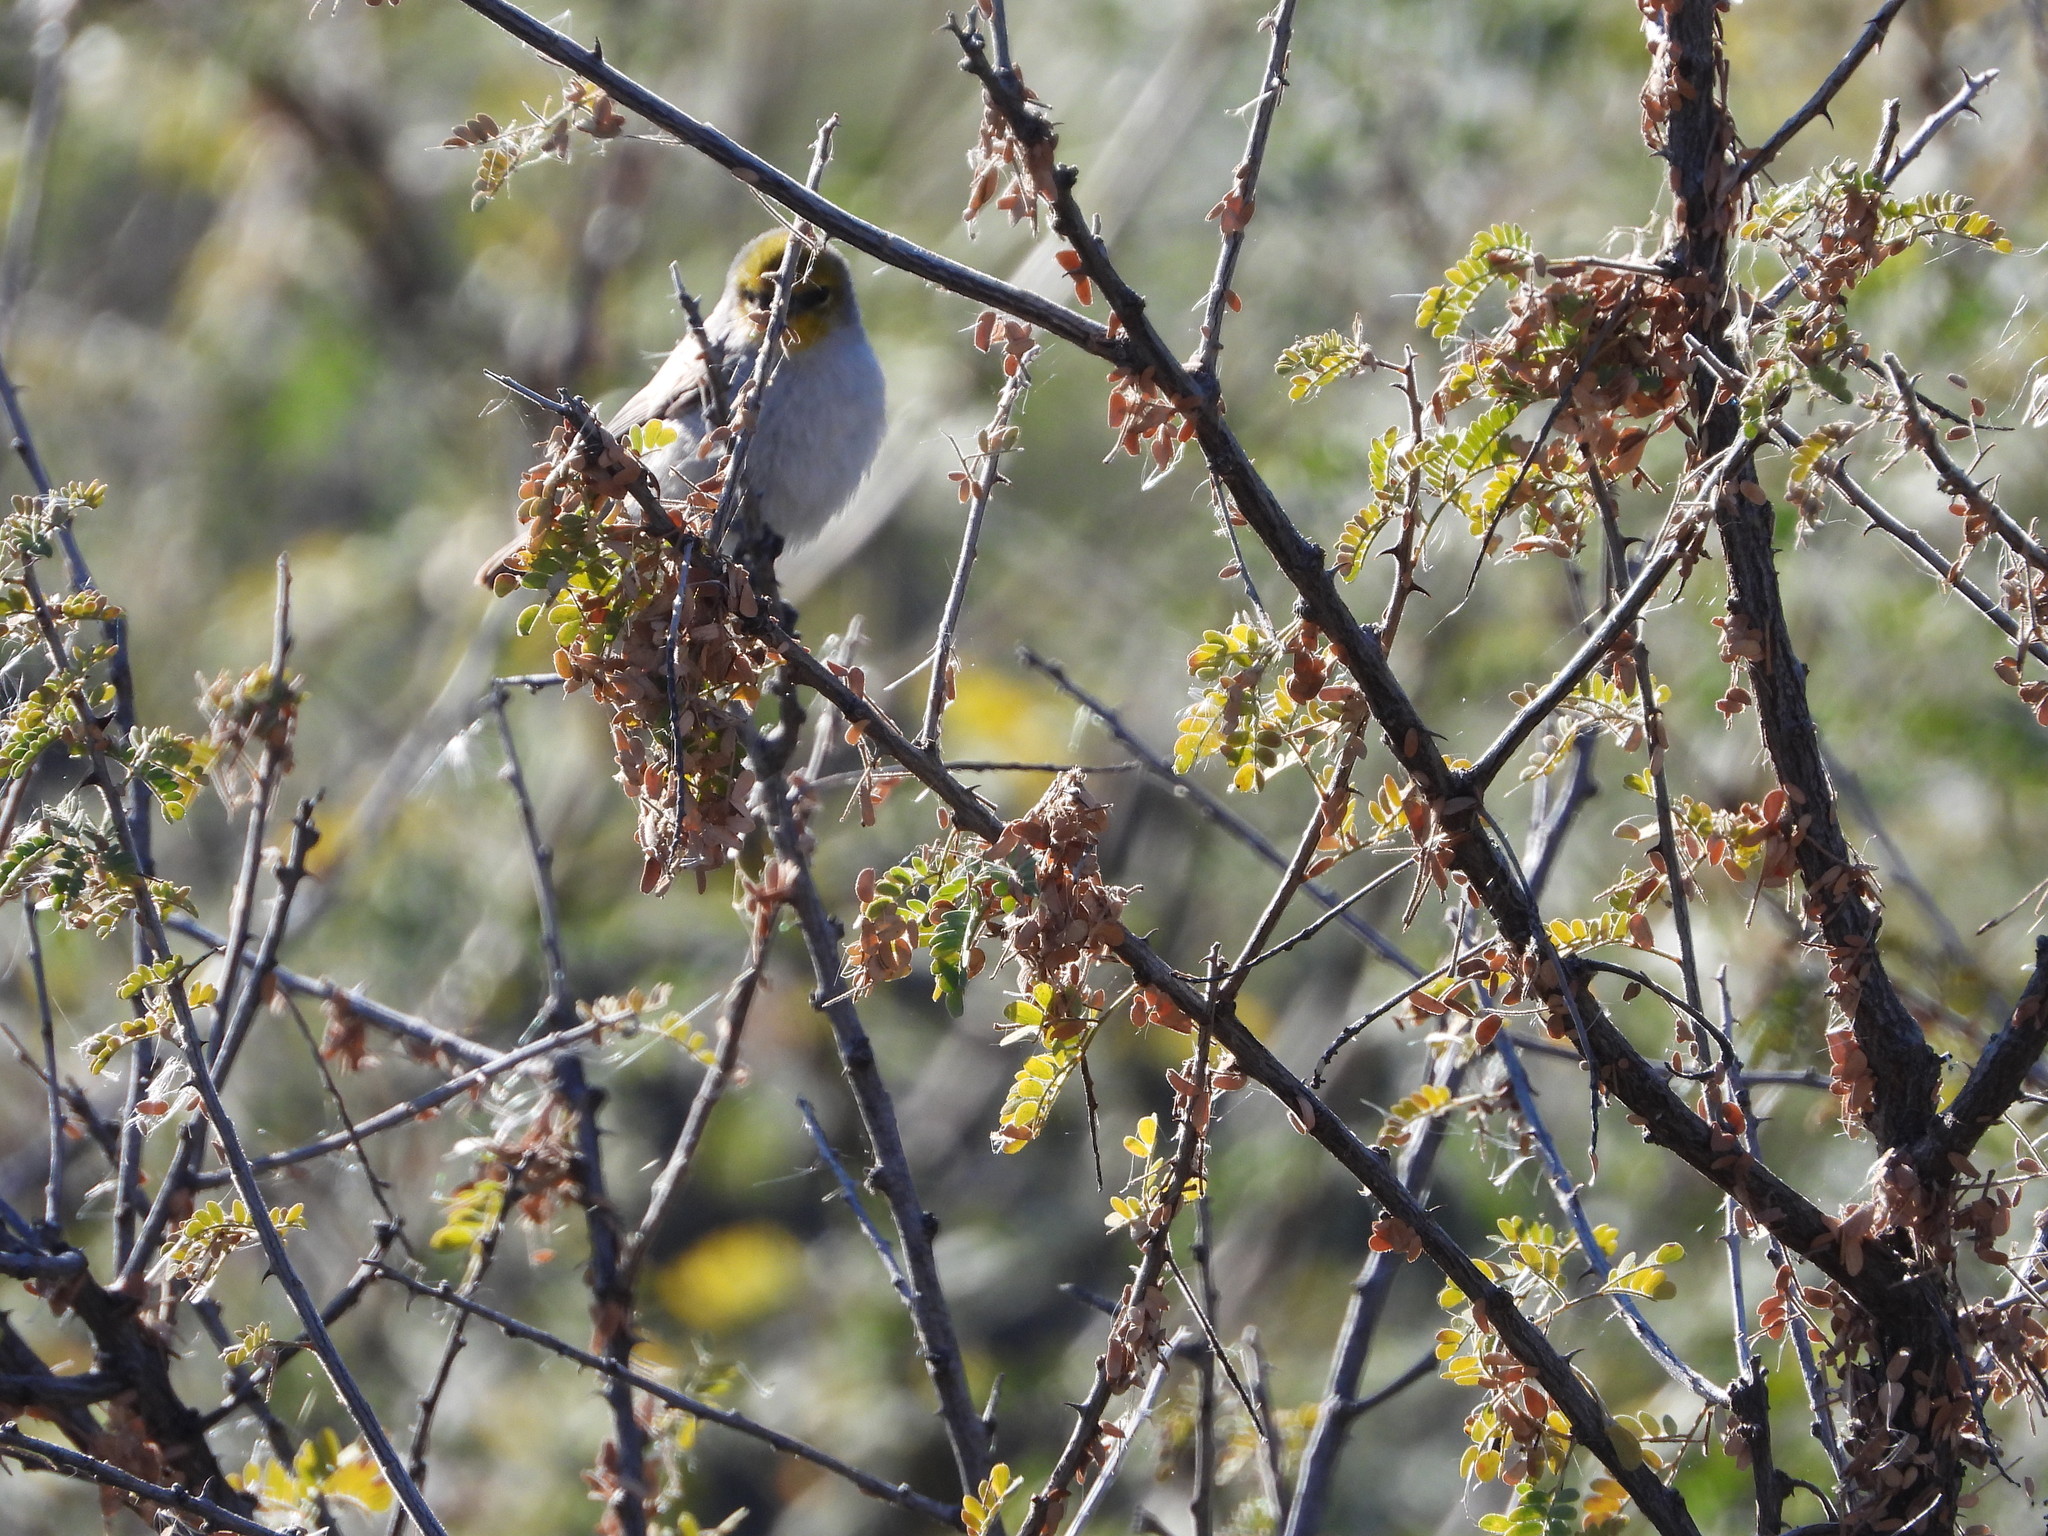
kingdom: Animalia
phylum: Chordata
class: Aves
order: Passeriformes
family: Remizidae
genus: Auriparus
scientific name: Auriparus flaviceps
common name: Verdin
